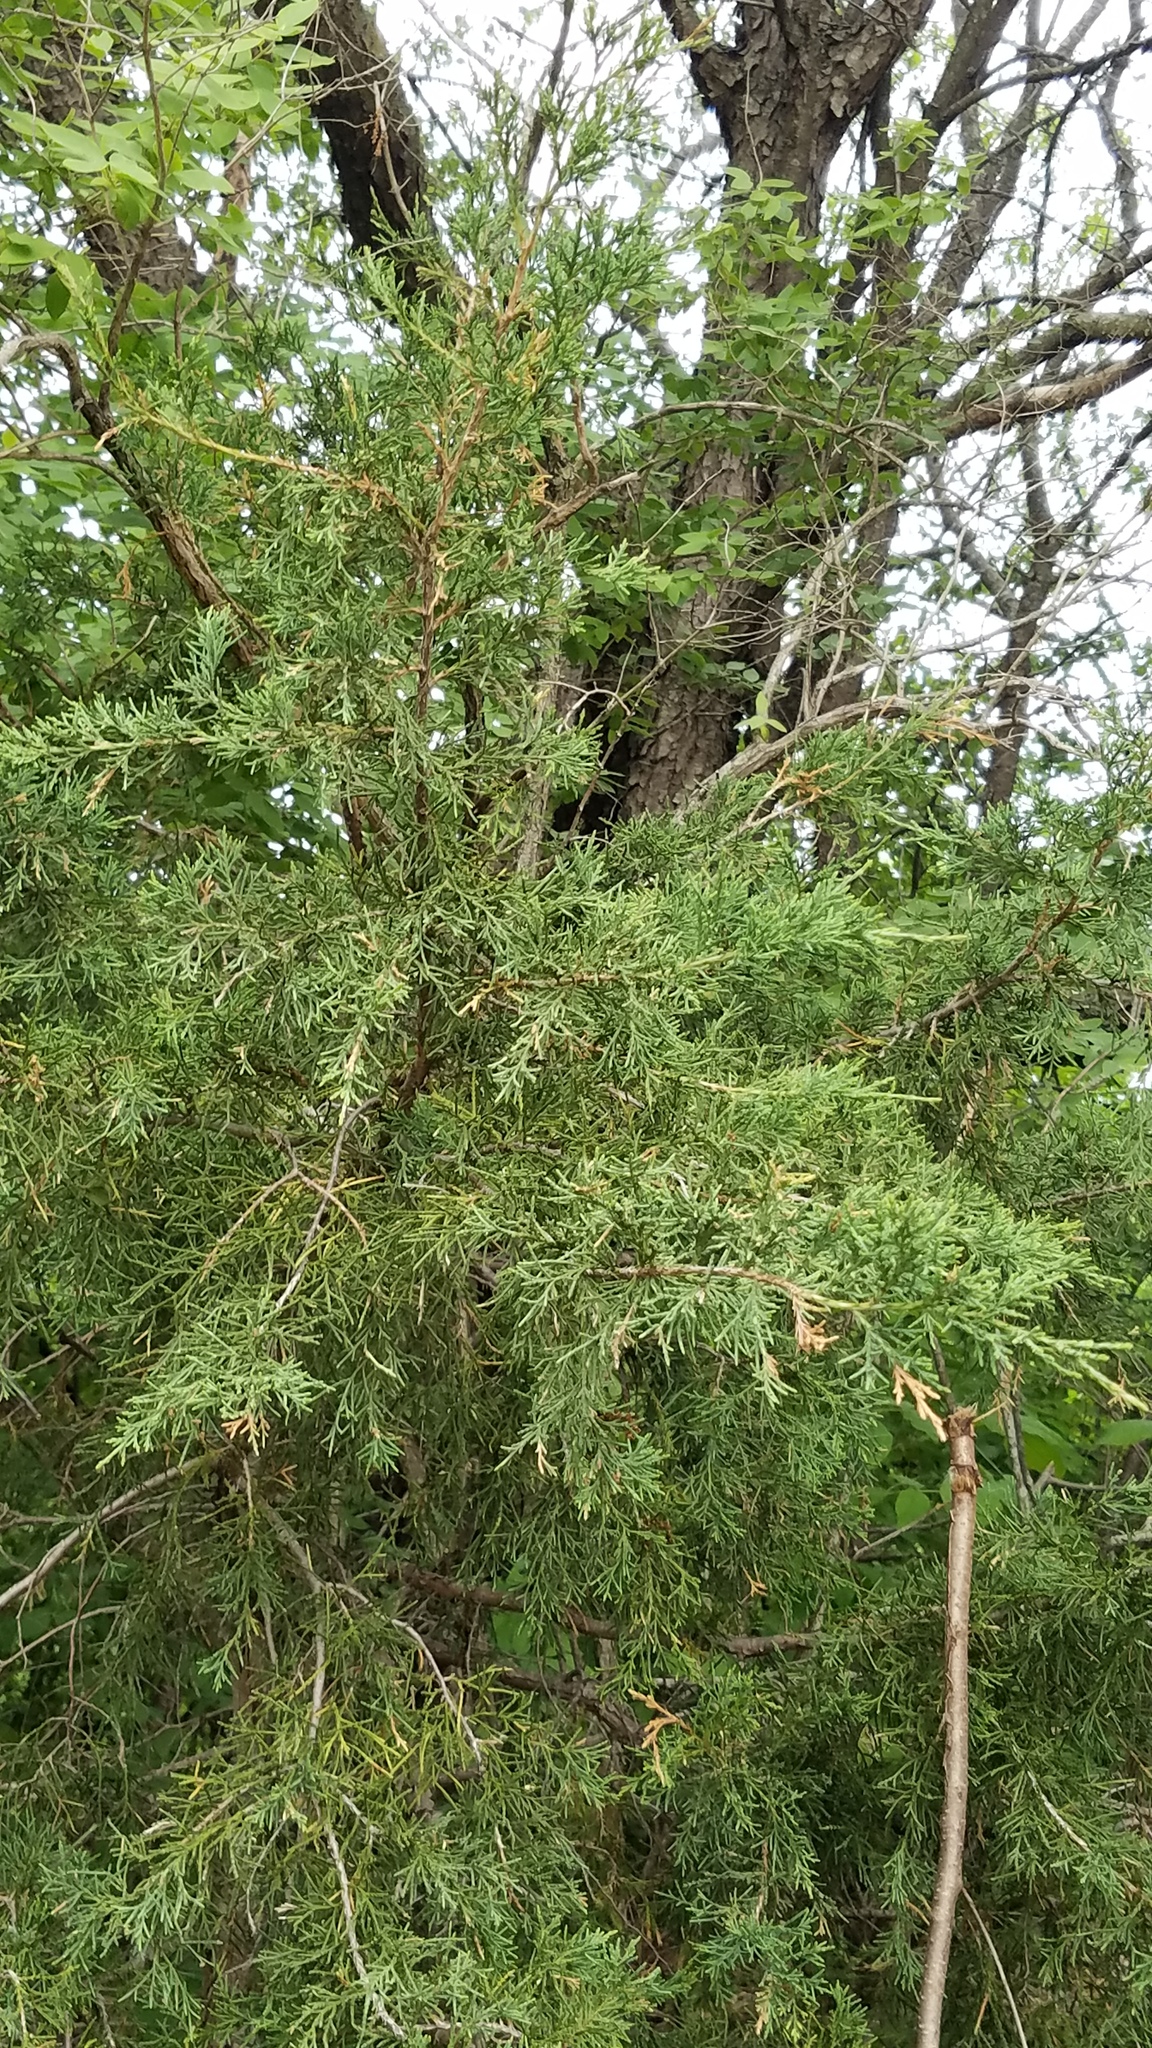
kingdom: Plantae
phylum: Tracheophyta
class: Pinopsida
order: Pinales
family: Cupressaceae
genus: Juniperus
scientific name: Juniperus virginiana
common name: Red juniper
